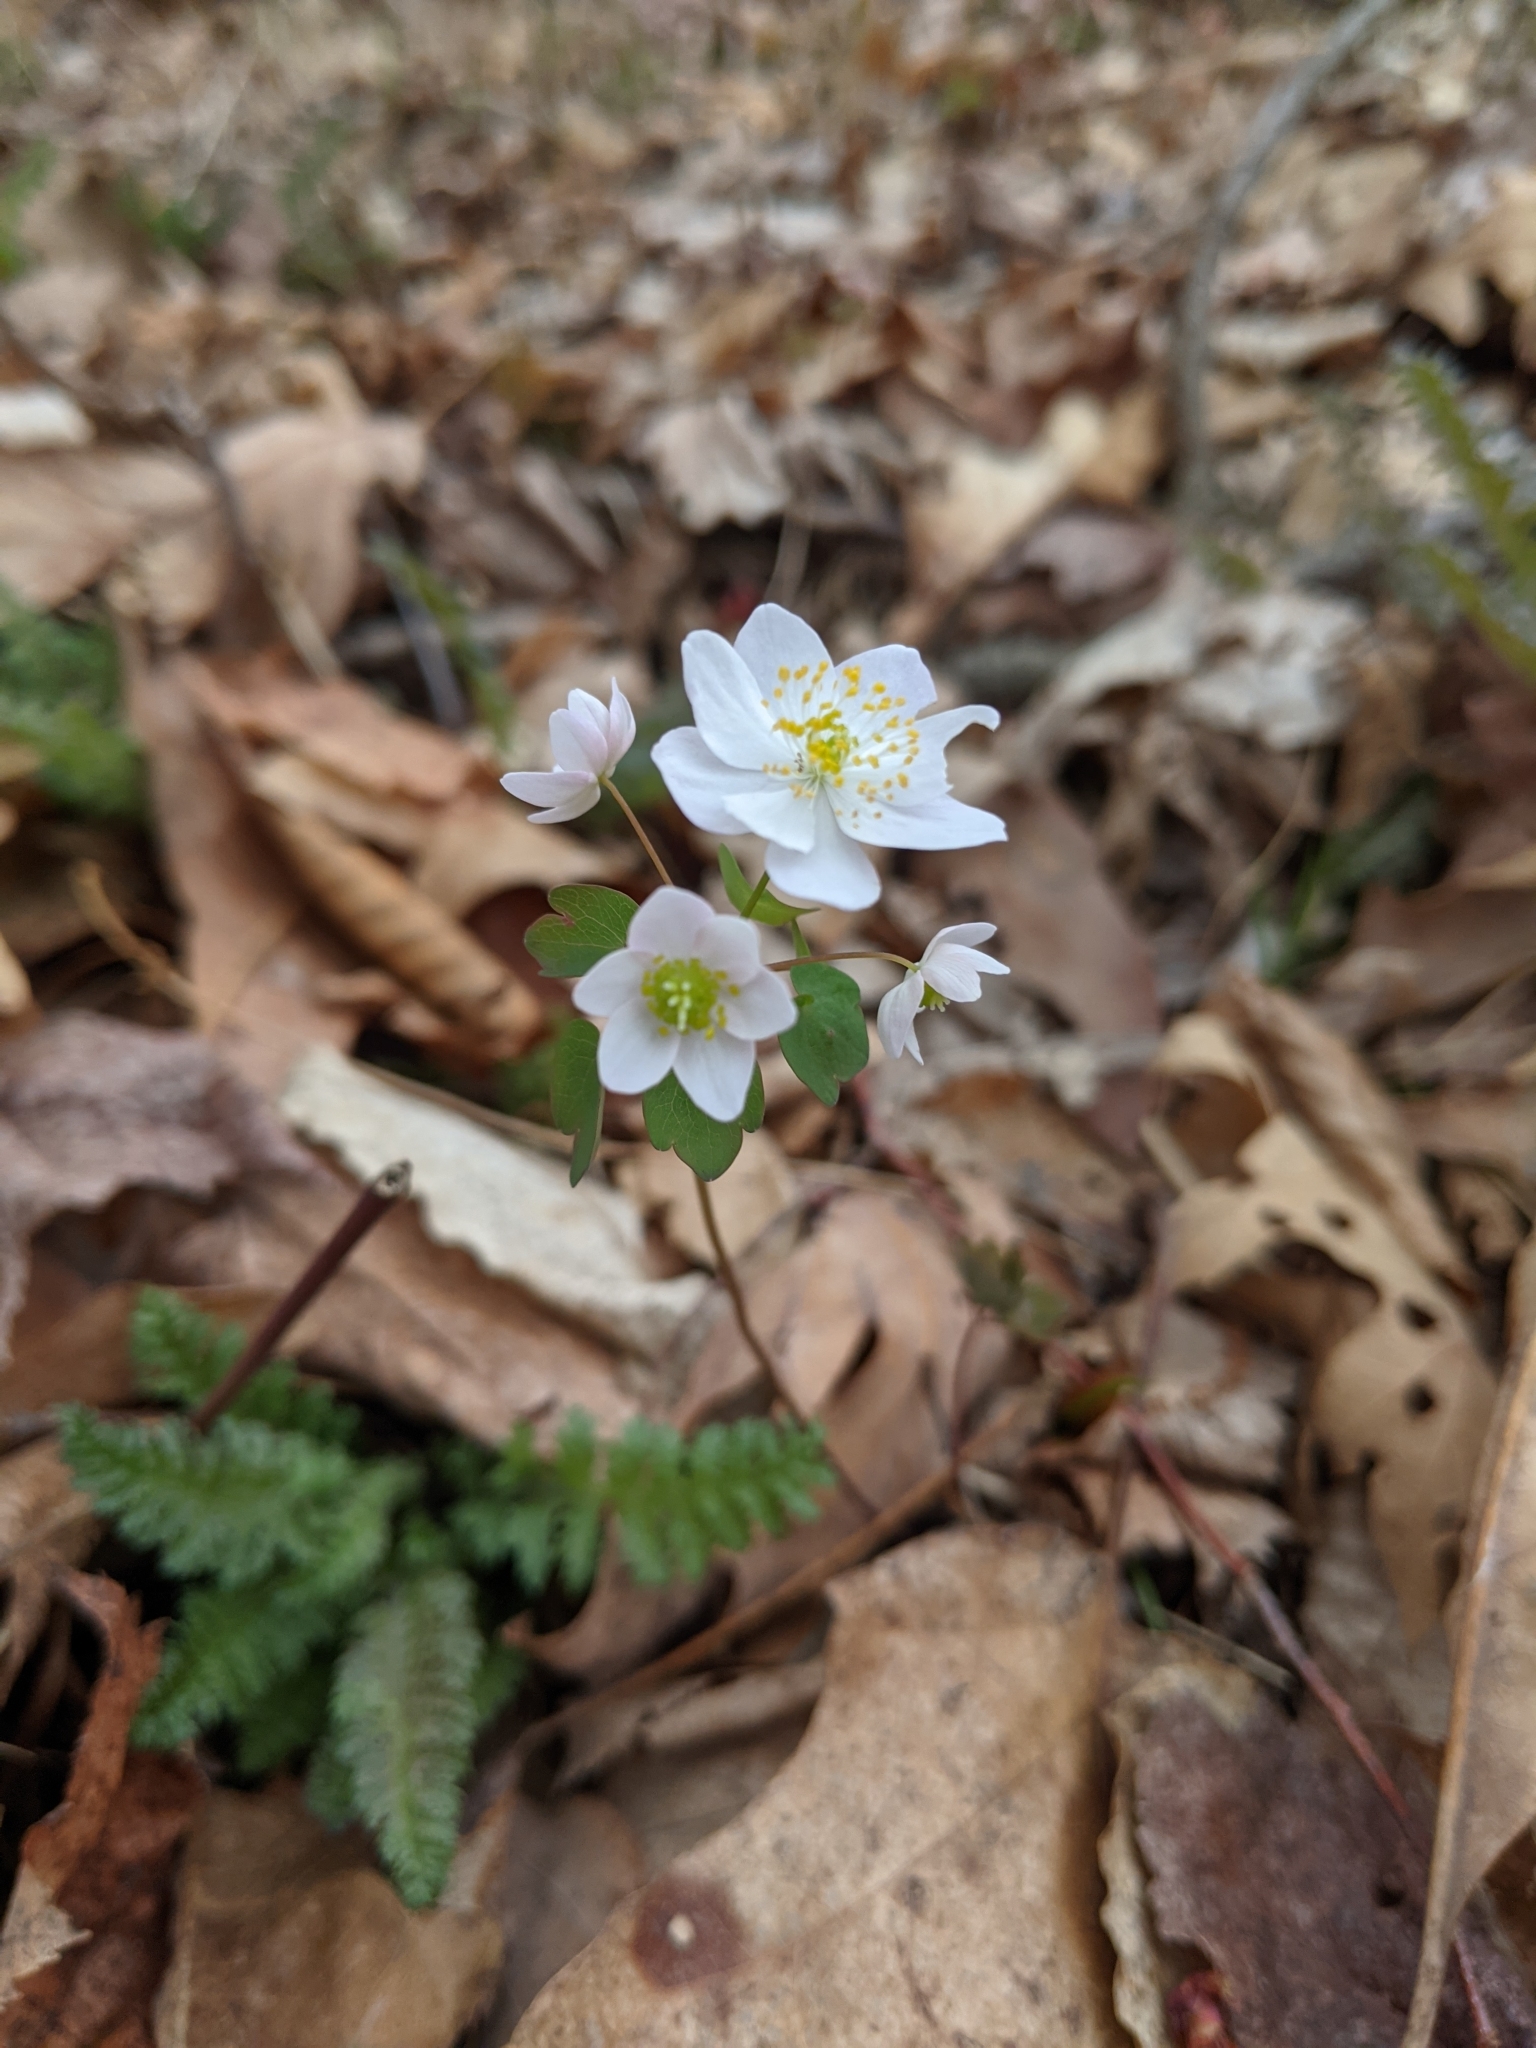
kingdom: Plantae
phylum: Tracheophyta
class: Magnoliopsida
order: Ranunculales
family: Ranunculaceae
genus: Thalictrum
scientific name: Thalictrum thalictroides
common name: Rue-anemone
